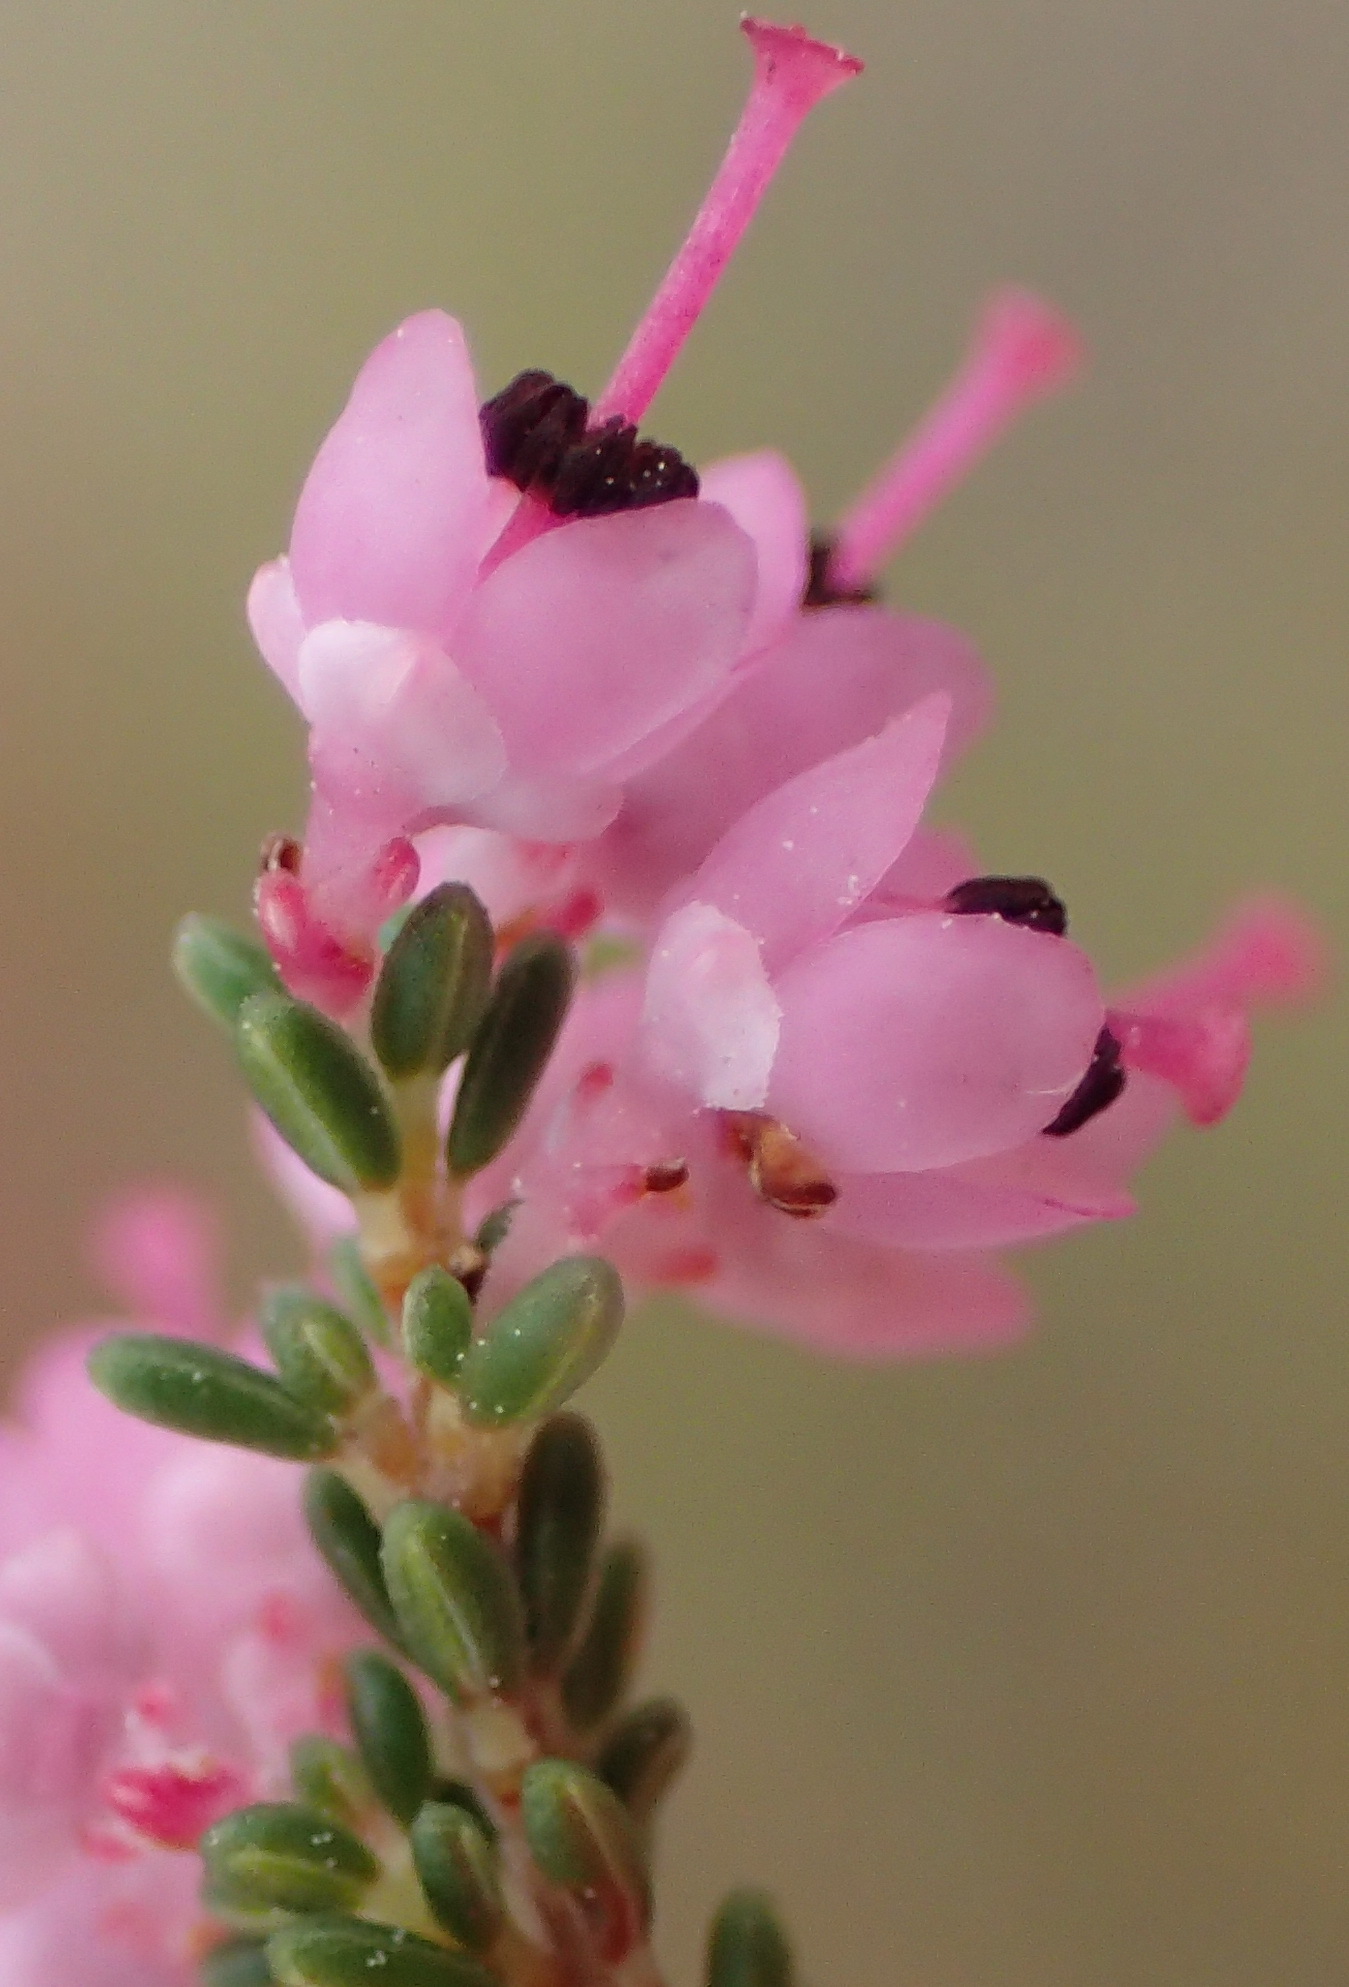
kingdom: Plantae
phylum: Tracheophyta
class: Magnoliopsida
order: Ericales
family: Ericaceae
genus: Erica
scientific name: Erica sparsa
